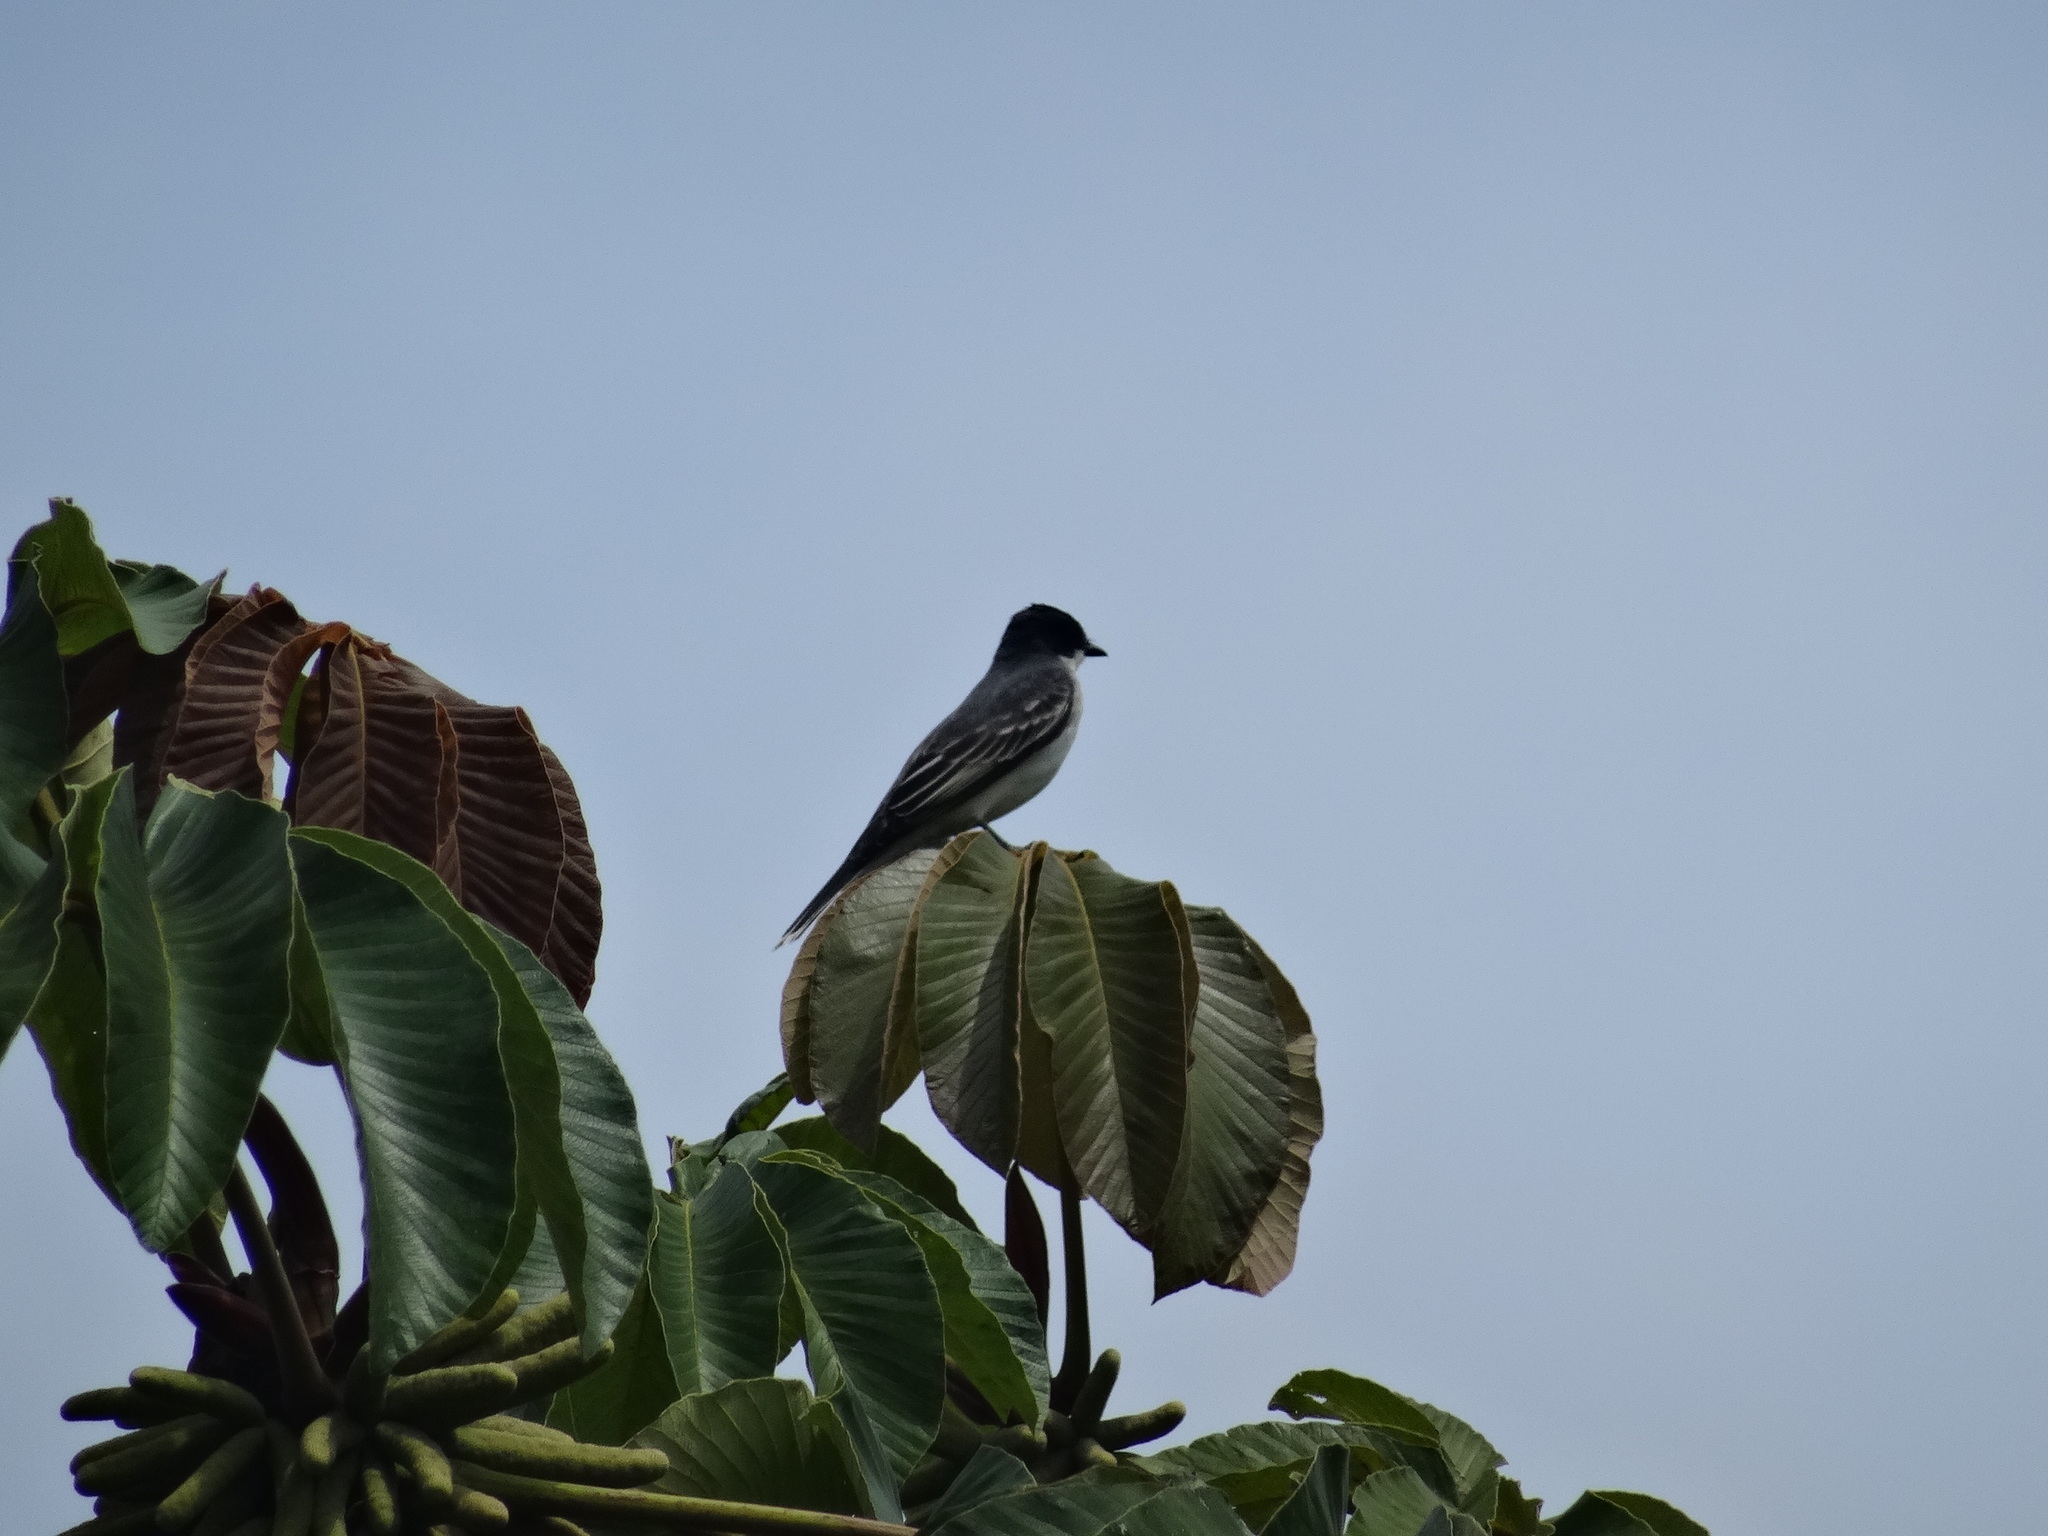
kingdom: Animalia
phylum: Chordata
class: Aves
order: Passeriformes
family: Tyrannidae
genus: Tyrannus
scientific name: Tyrannus tyrannus
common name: Eastern kingbird
